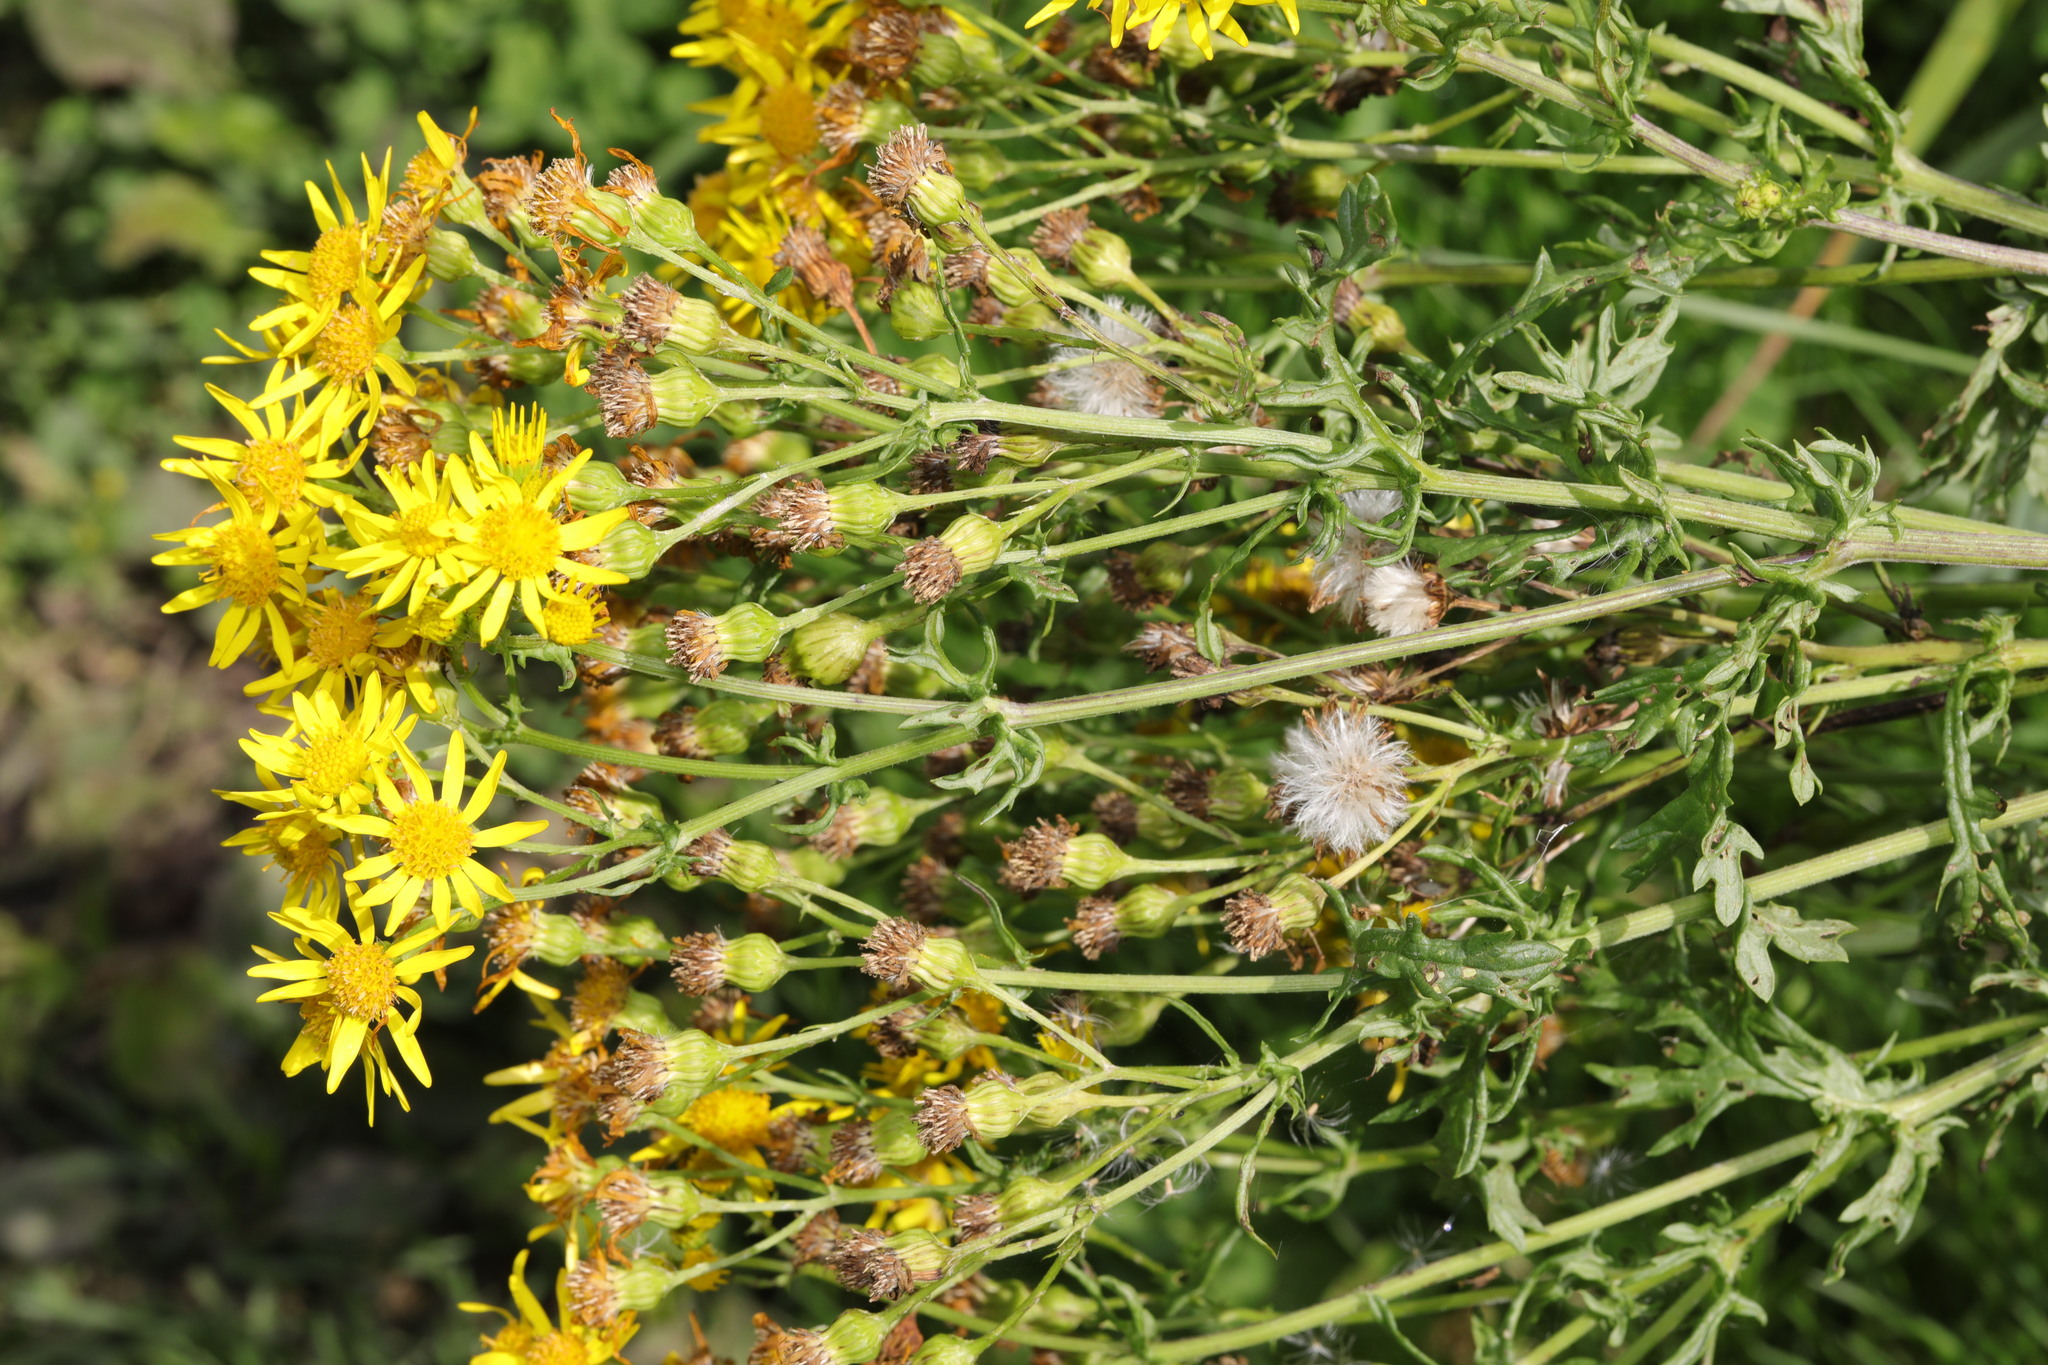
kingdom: Plantae
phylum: Tracheophyta
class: Magnoliopsida
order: Asterales
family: Asteraceae
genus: Jacobaea
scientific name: Jacobaea vulgaris
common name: Stinking willie
